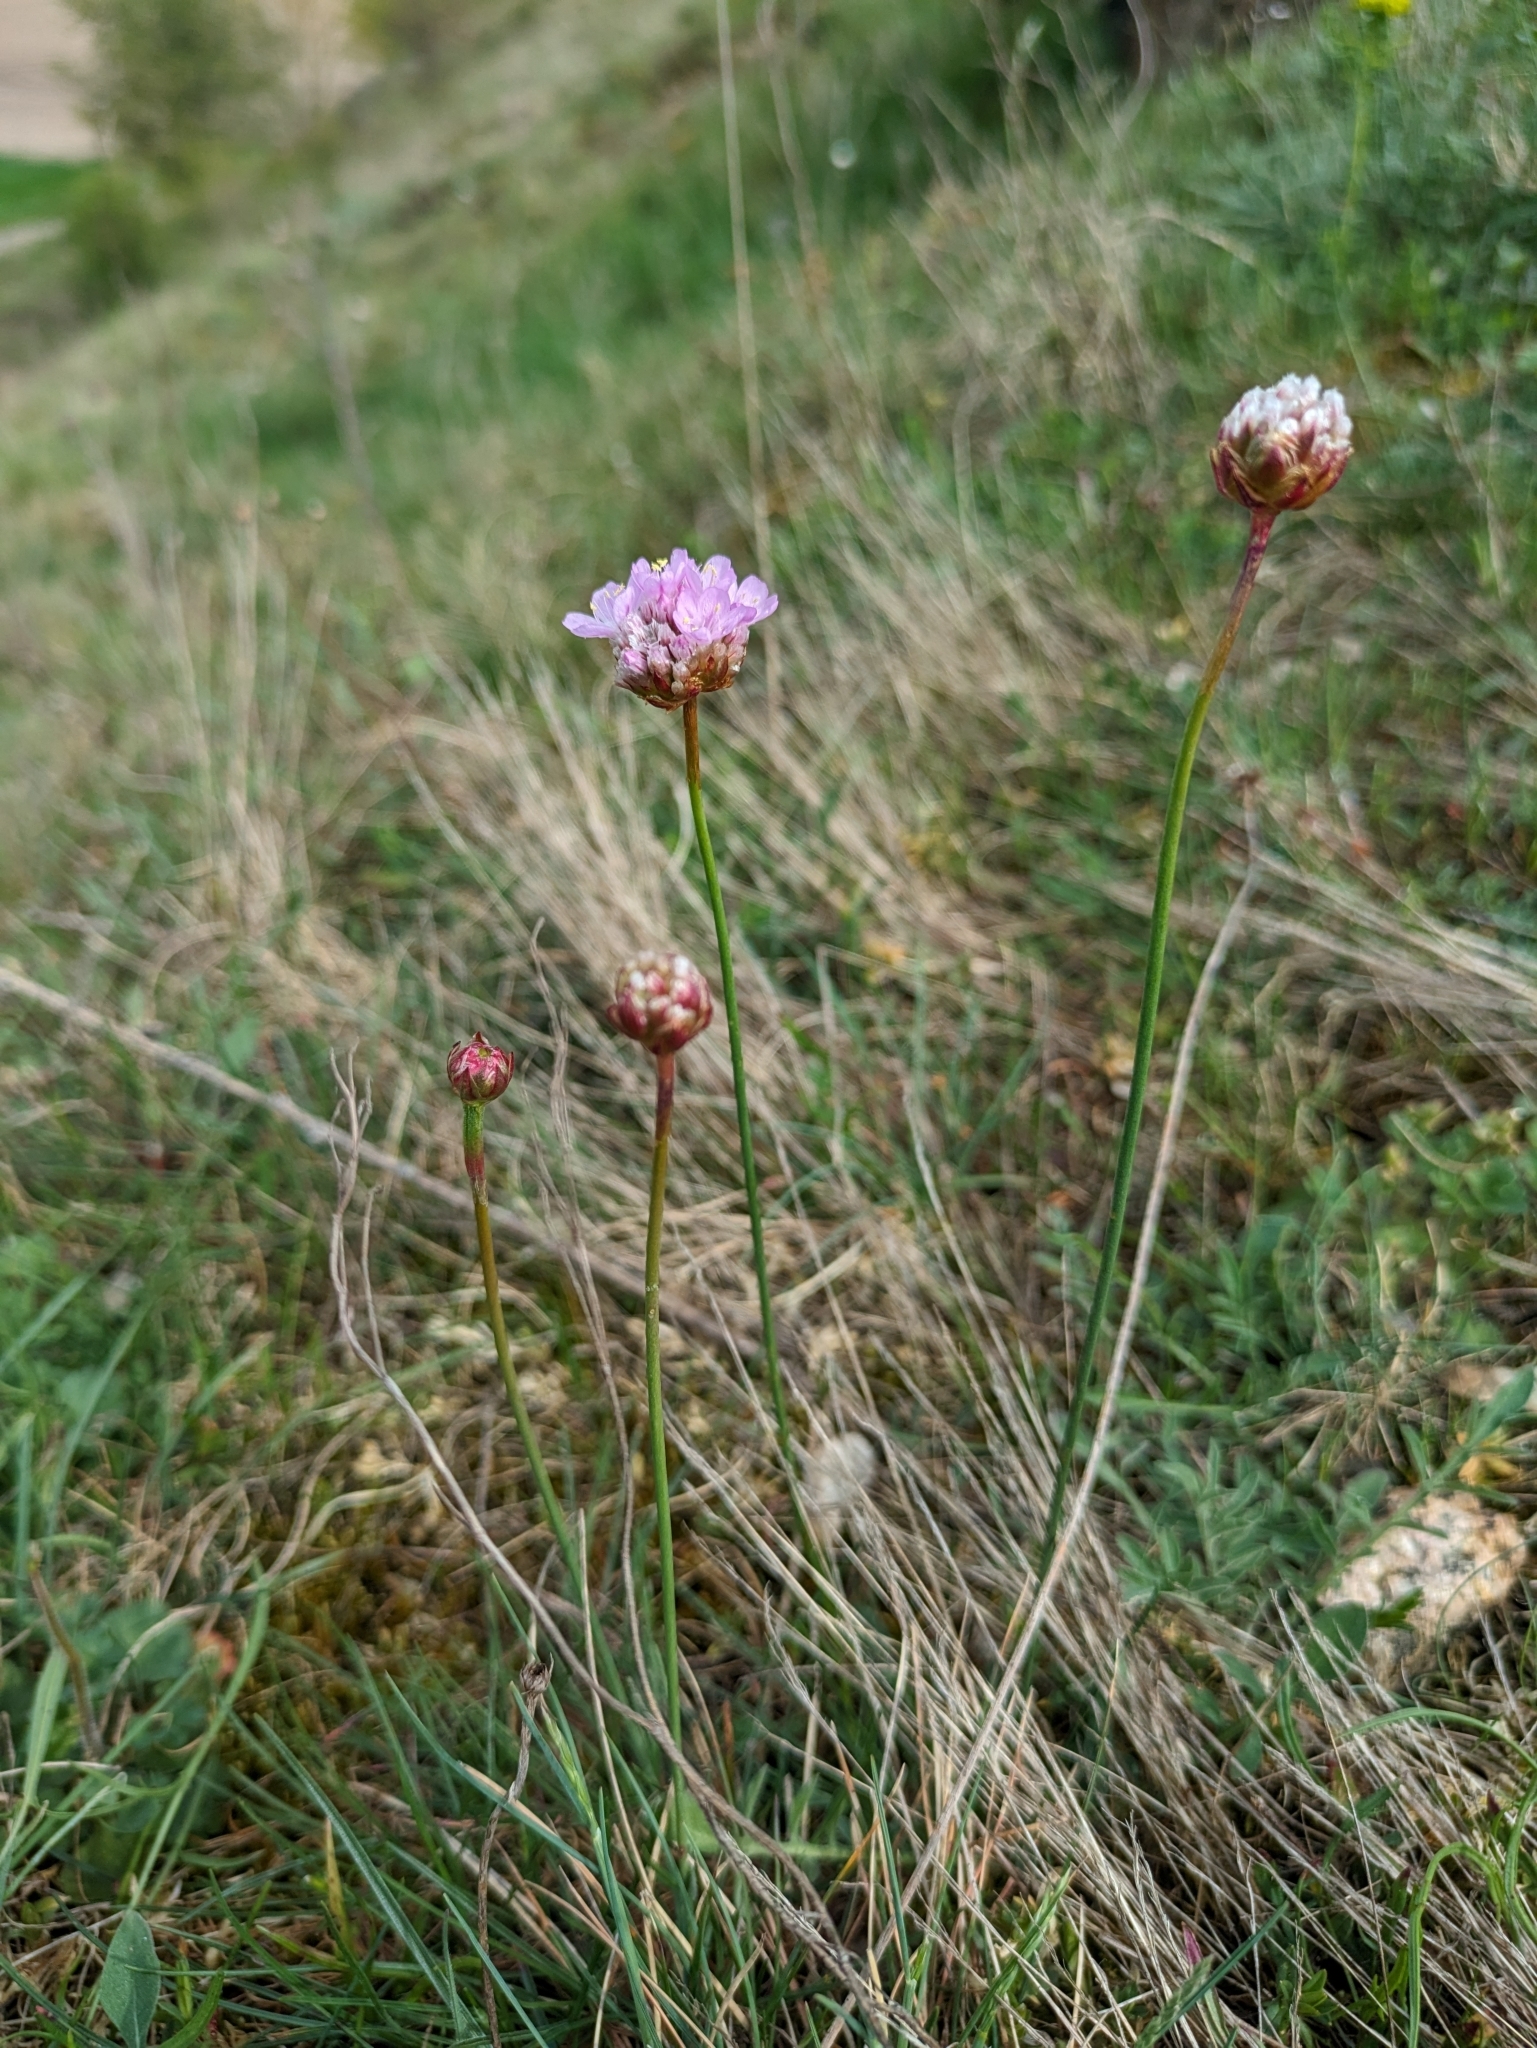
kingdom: Plantae
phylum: Tracheophyta
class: Magnoliopsida
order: Caryophyllales
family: Plumbaginaceae
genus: Armeria
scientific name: Armeria maritima
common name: Thrift
